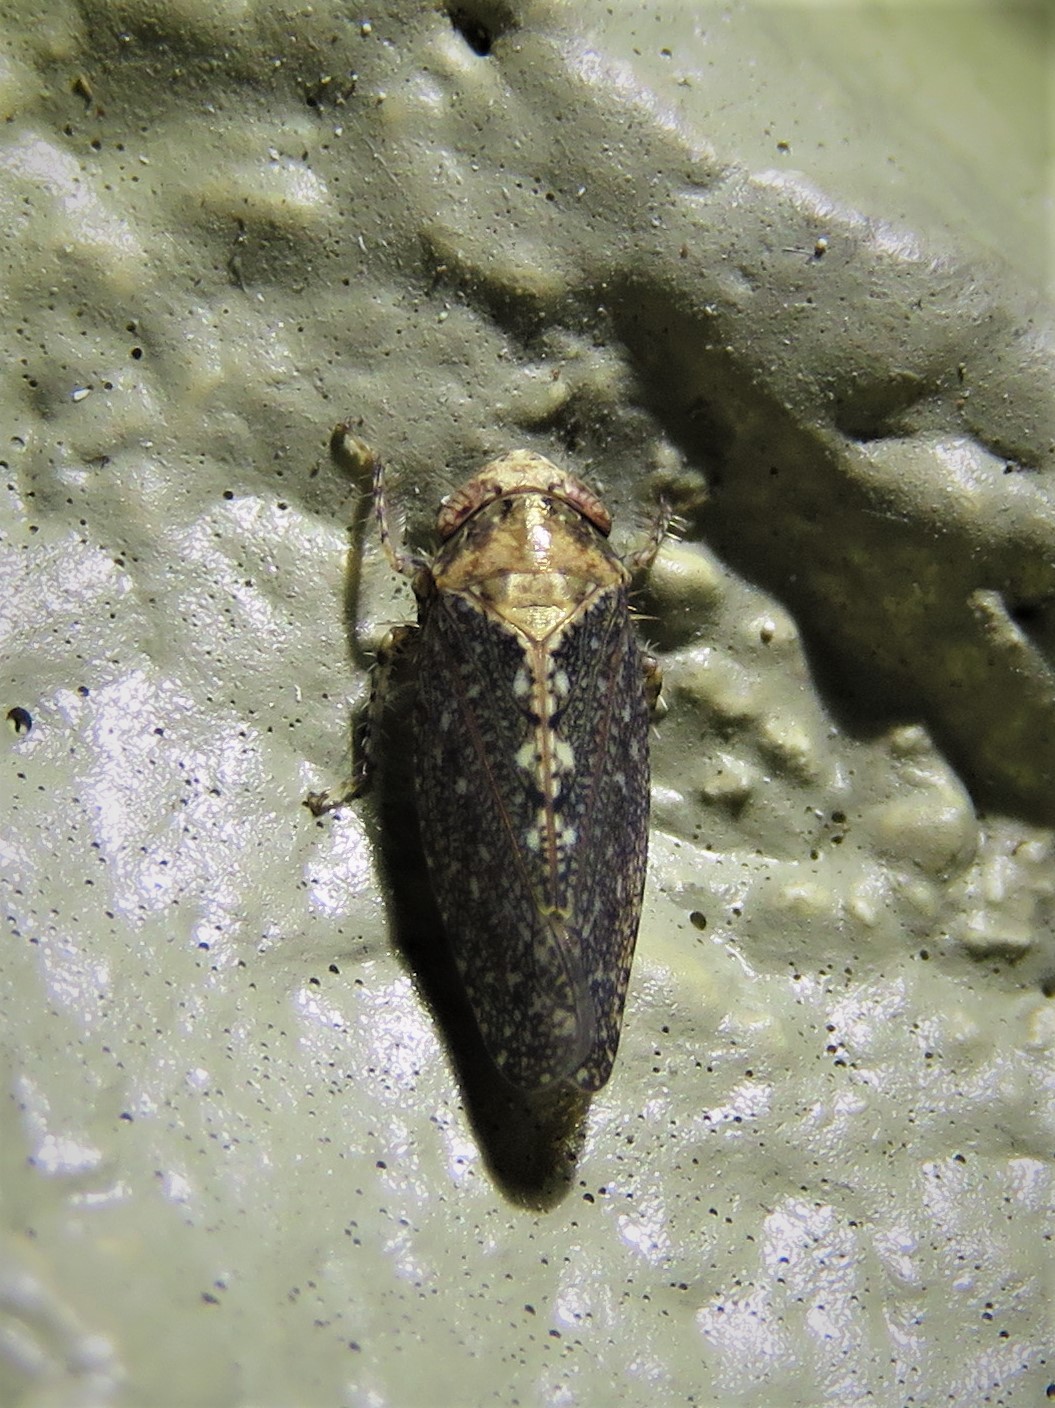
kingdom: Animalia
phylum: Arthropoda
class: Insecta
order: Hemiptera
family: Cicadellidae
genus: Excultanus
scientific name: Excultanus excultus
